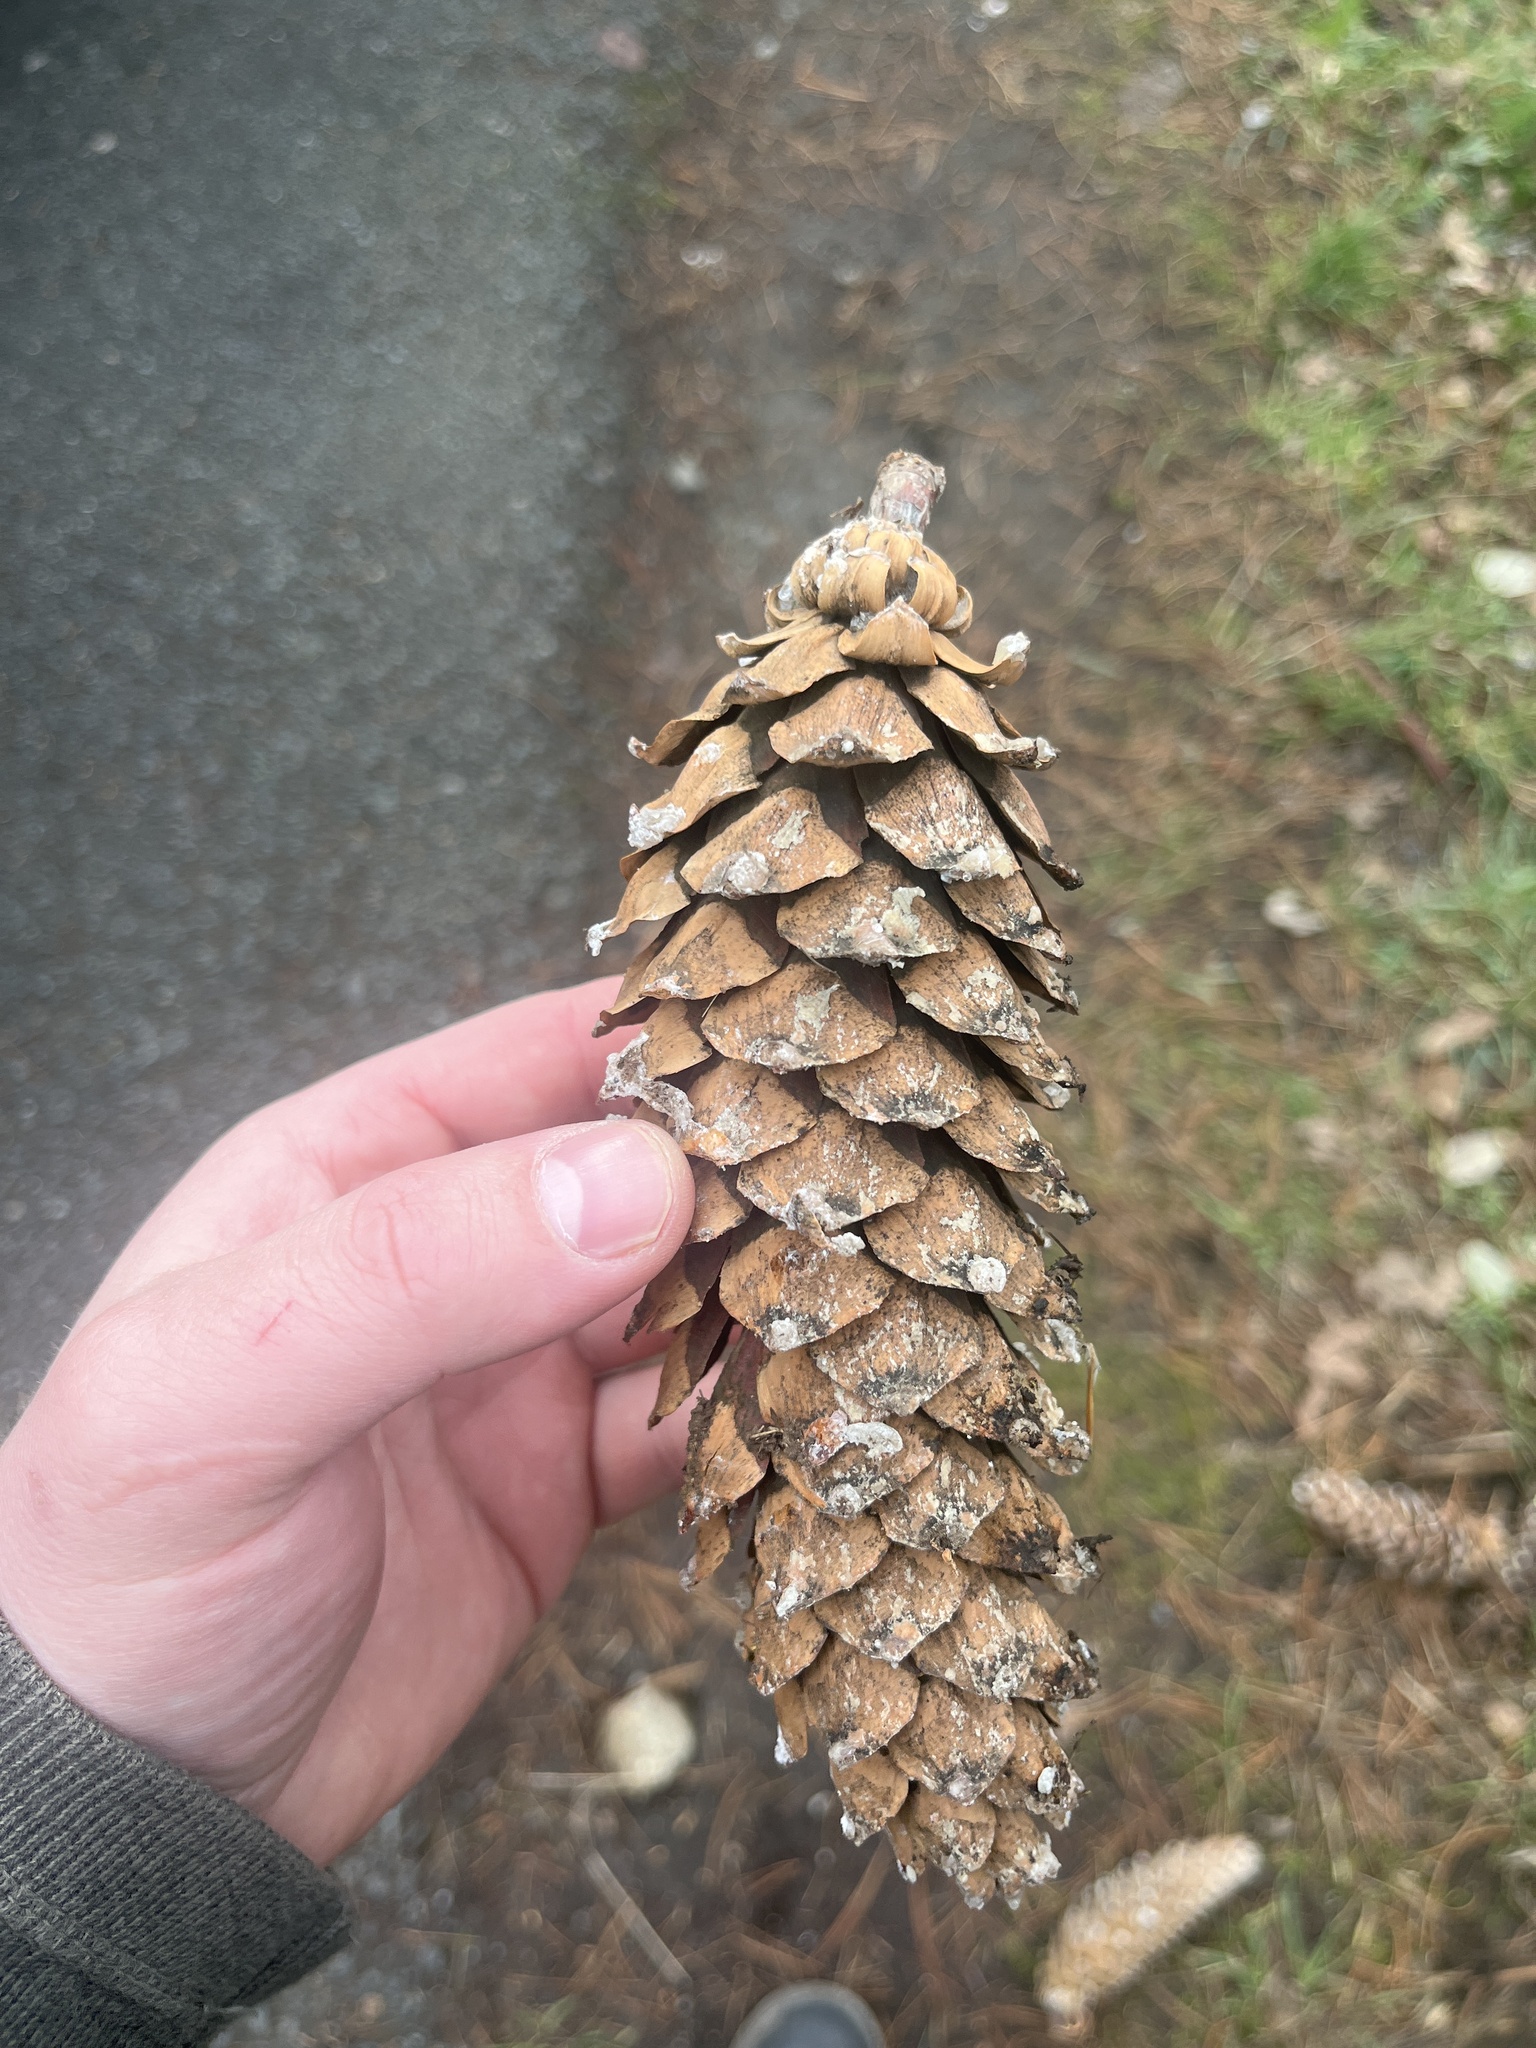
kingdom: Plantae
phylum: Tracheophyta
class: Pinopsida
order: Pinales
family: Pinaceae
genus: Pinus
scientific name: Pinus monticola
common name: Western white pine
